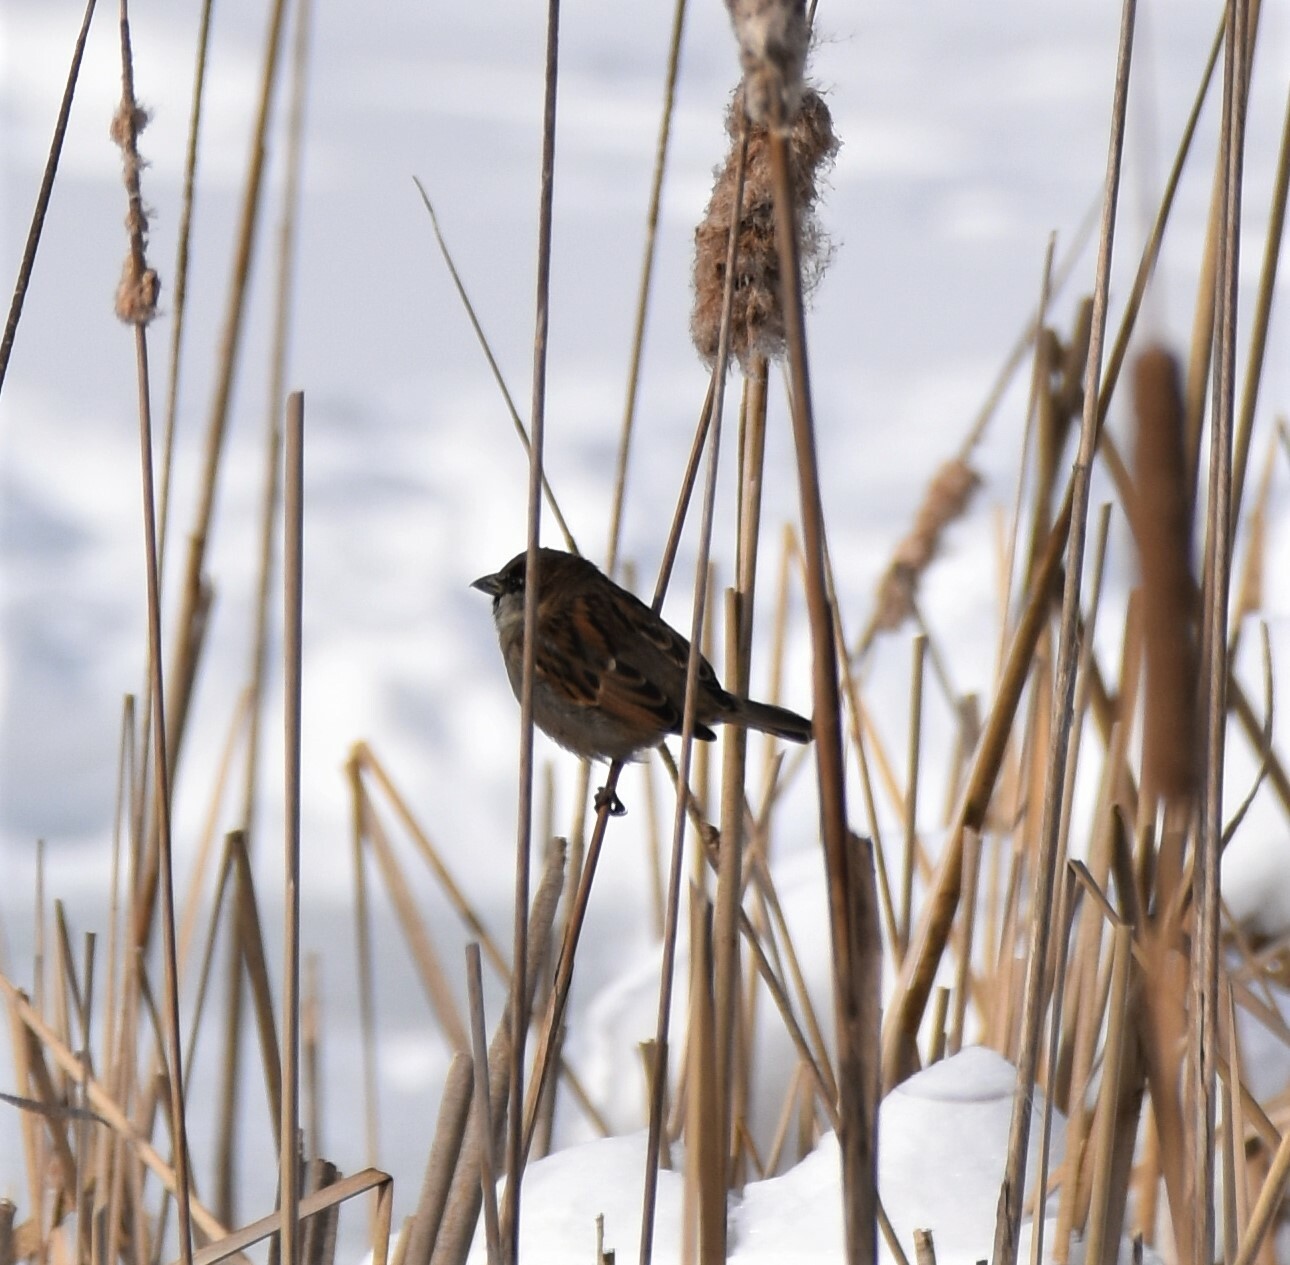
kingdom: Animalia
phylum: Chordata
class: Aves
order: Passeriformes
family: Passeridae
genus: Passer
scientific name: Passer domesticus
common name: House sparrow
